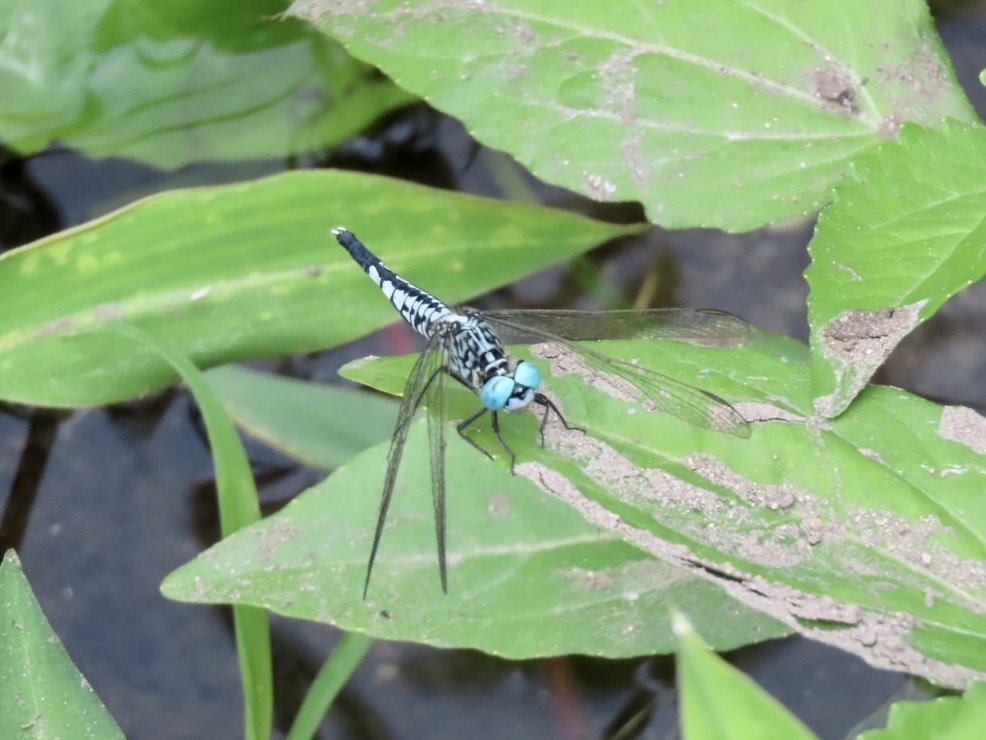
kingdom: Animalia
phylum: Arthropoda
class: Insecta
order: Odonata
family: Libellulidae
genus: Acisoma
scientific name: Acisoma panorpoides
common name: Asian pintail
